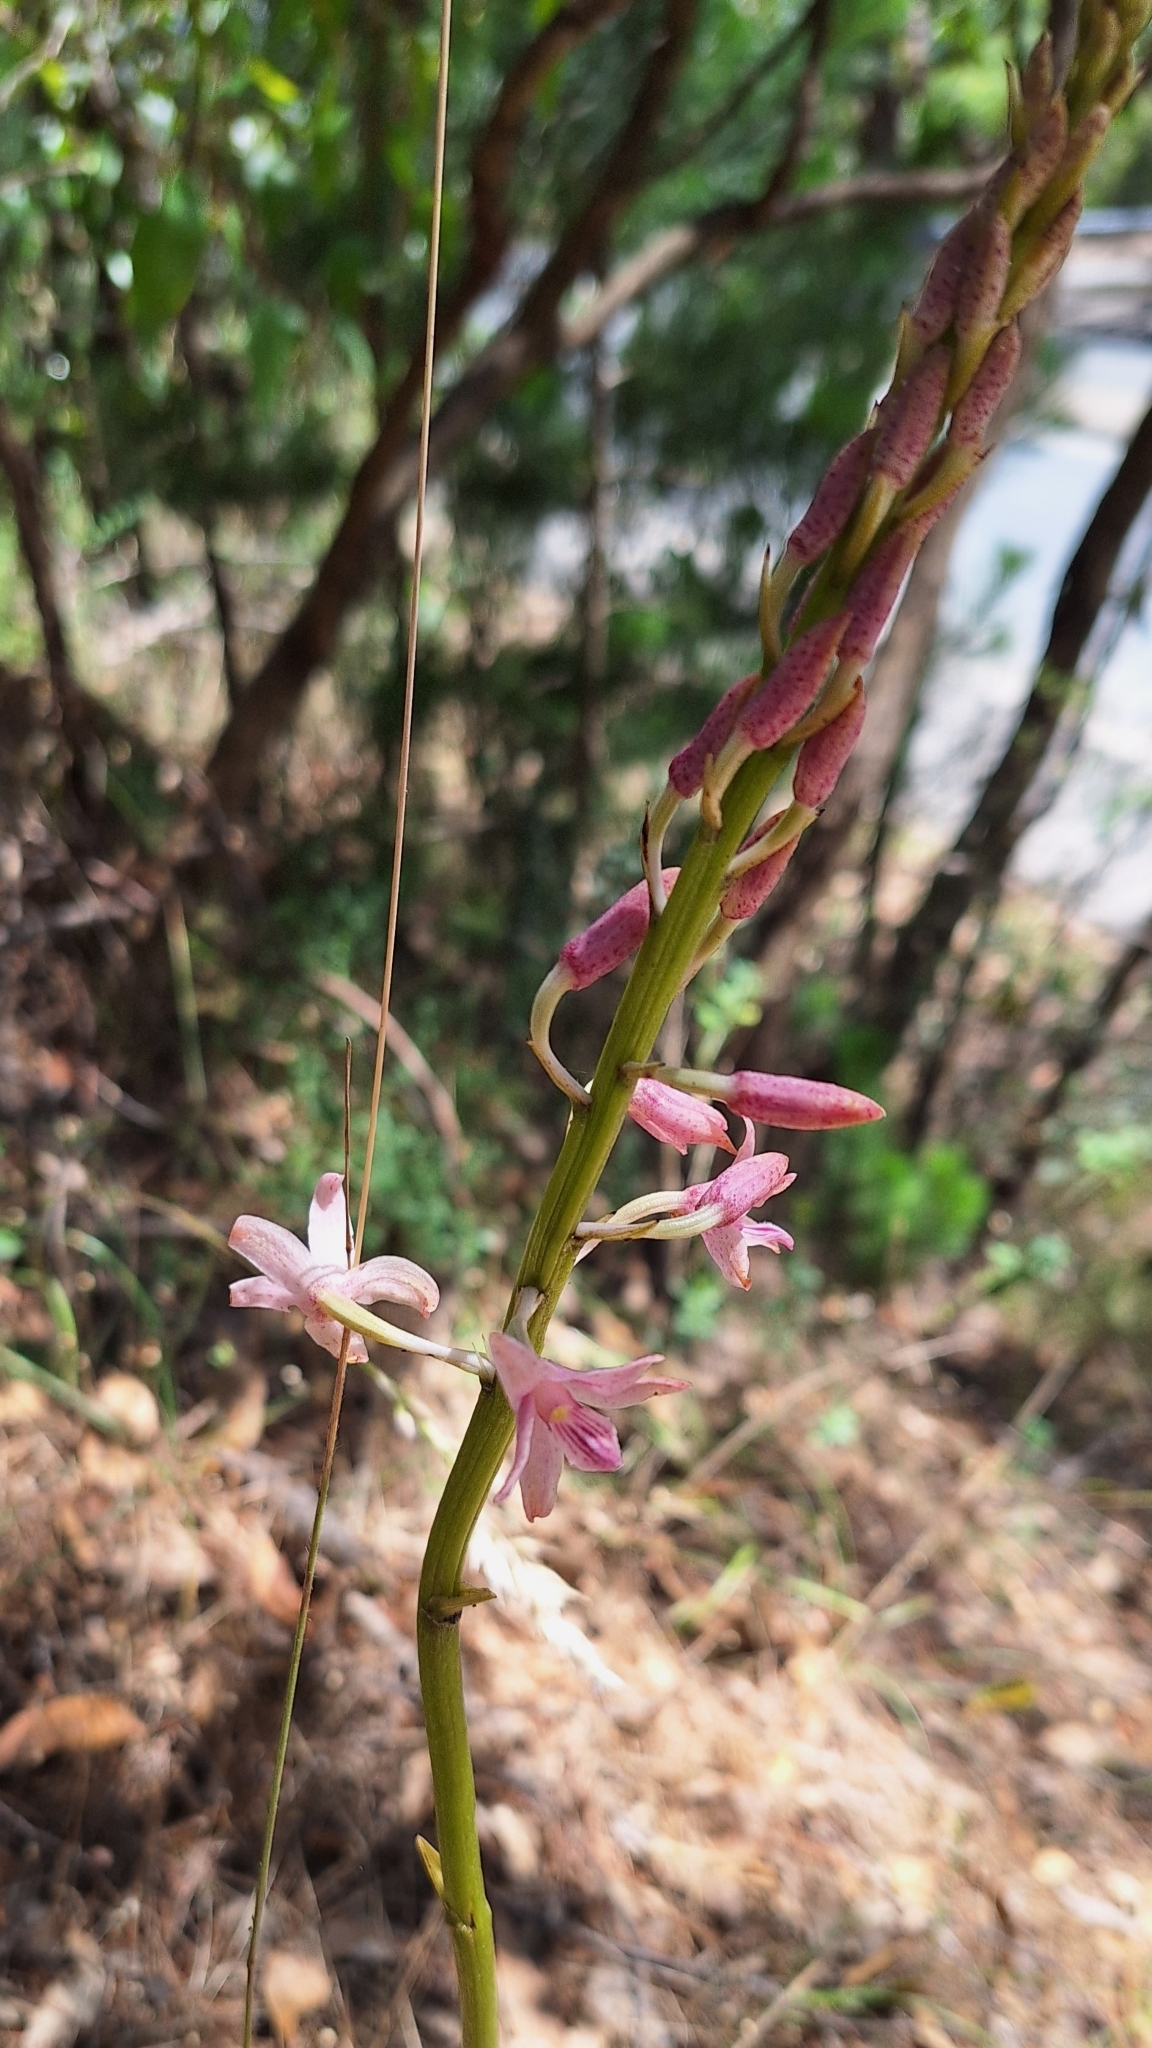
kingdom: Plantae
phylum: Tracheophyta
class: Liliopsida
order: Asparagales
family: Orchidaceae
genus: Dipodium
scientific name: Dipodium roseum
